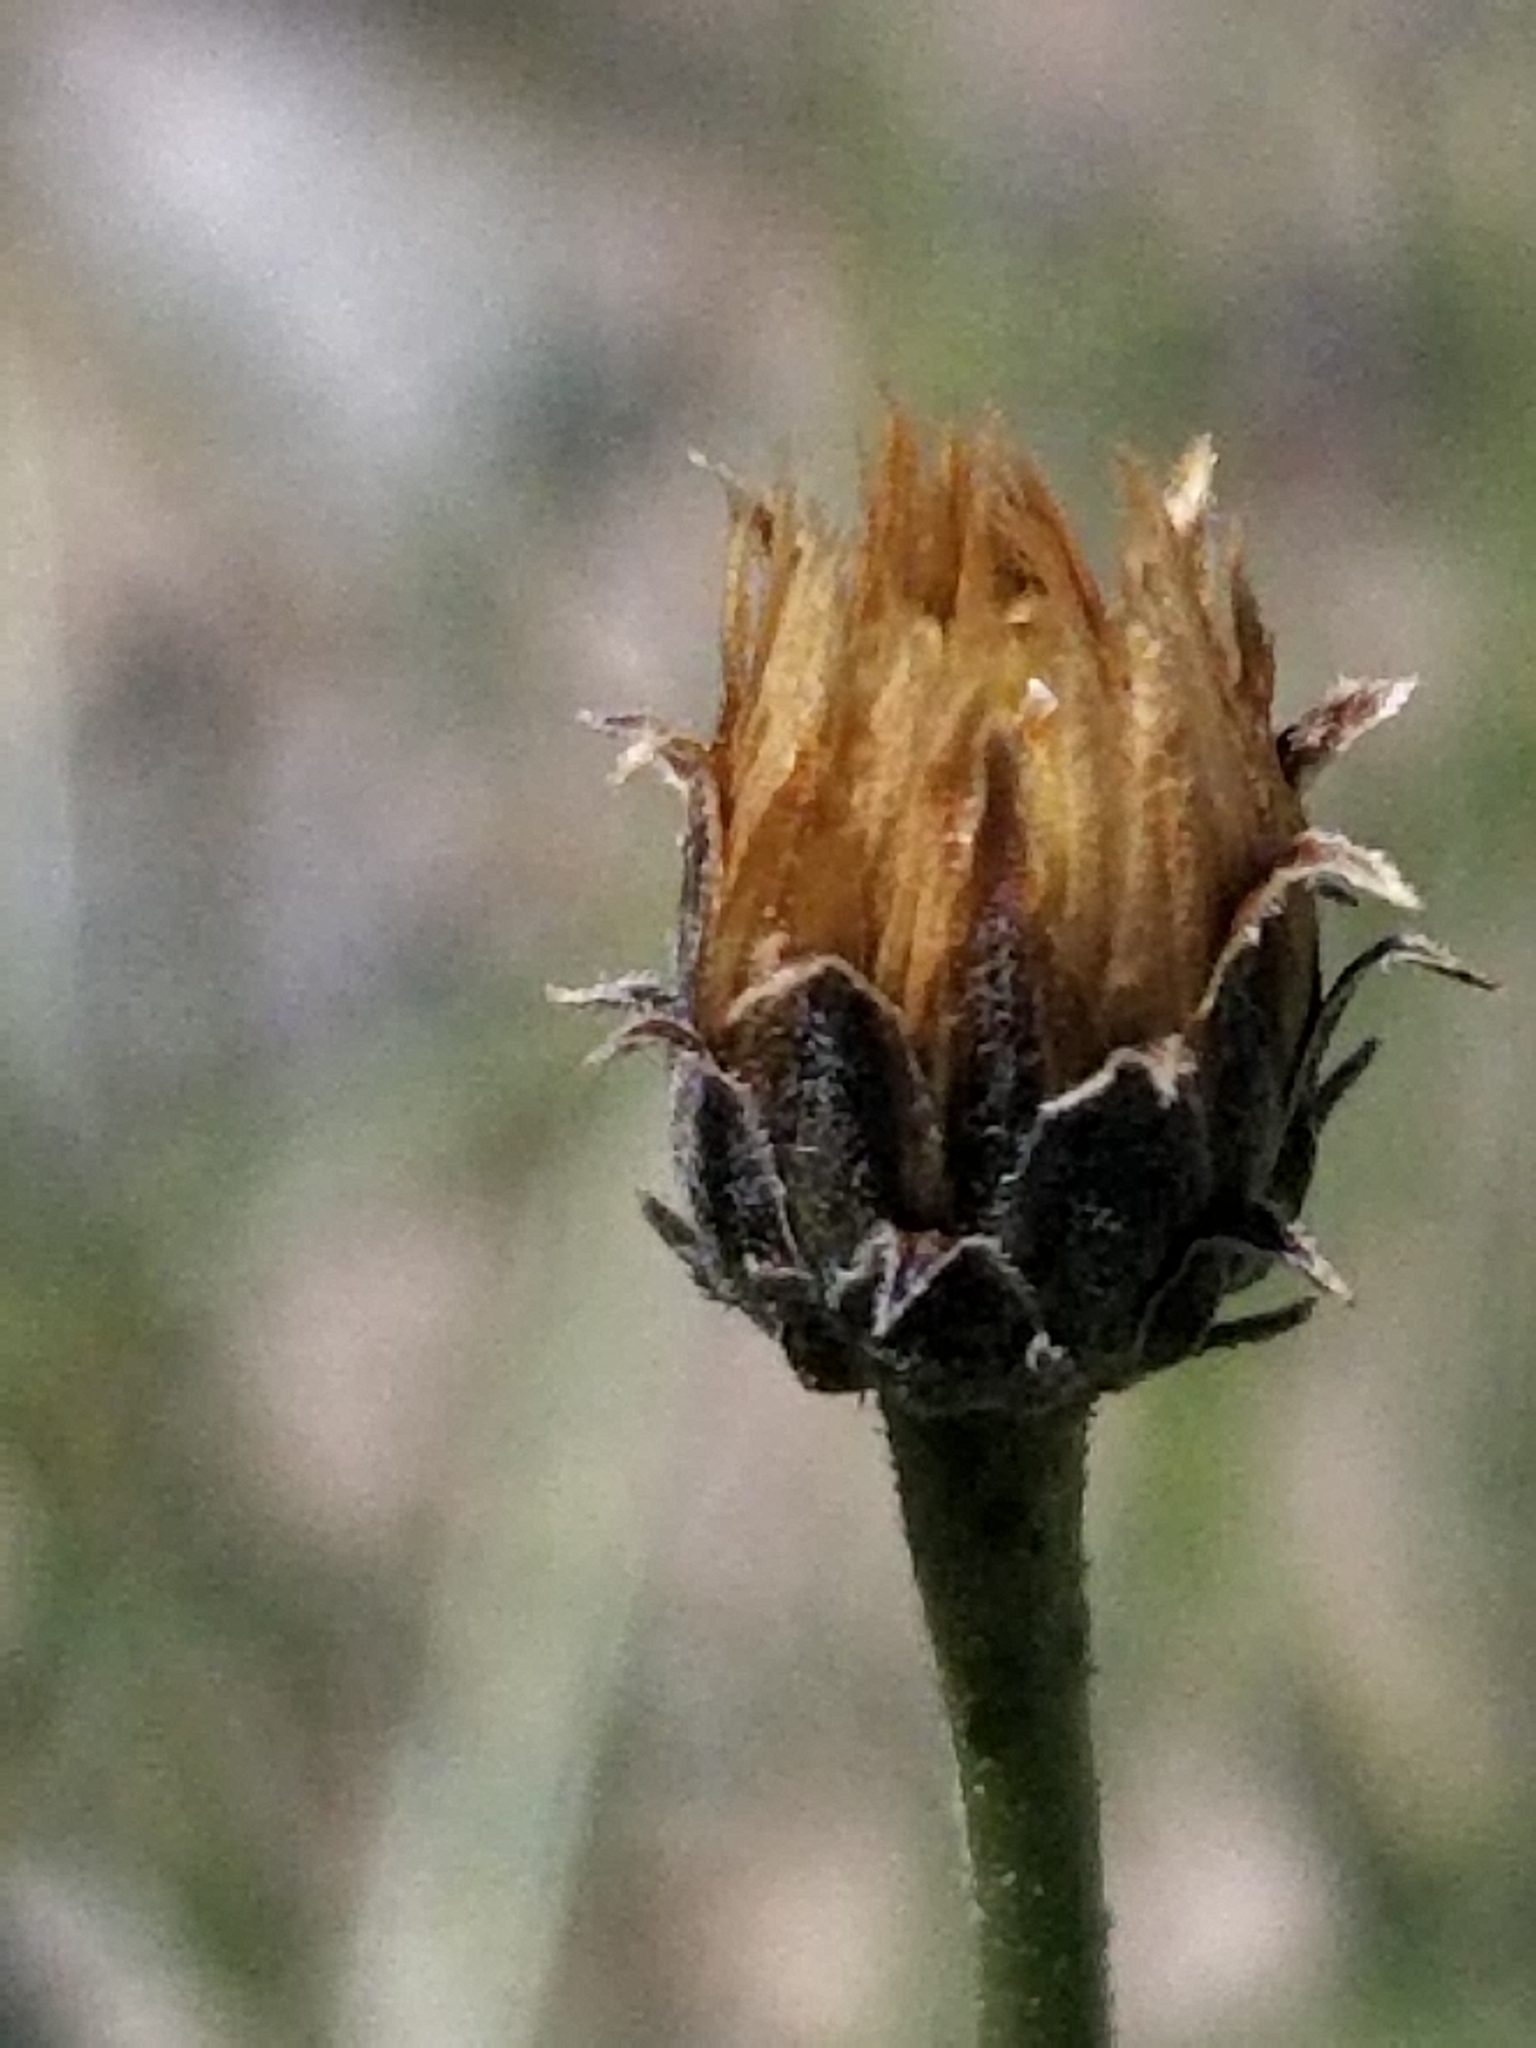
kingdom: Plantae
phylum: Tracheophyta
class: Magnoliopsida
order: Asterales
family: Asteraceae
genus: Bebbia
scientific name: Bebbia juncea
